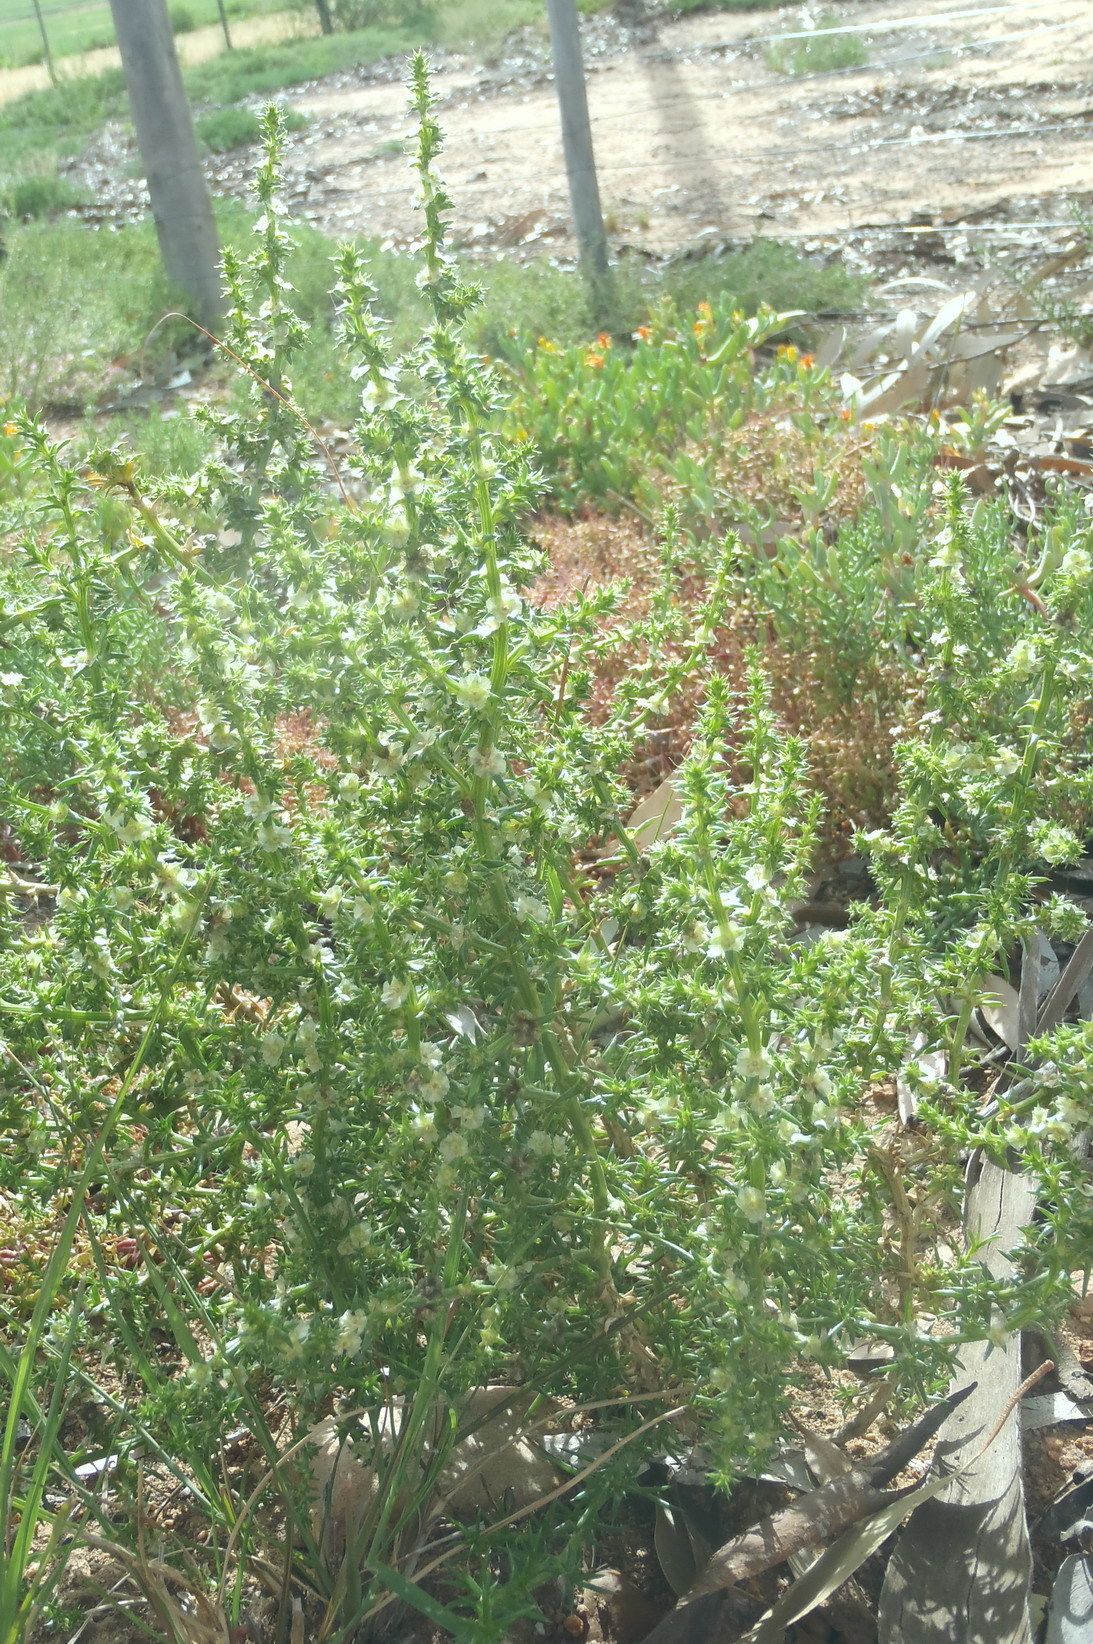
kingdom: Plantae
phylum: Tracheophyta
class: Magnoliopsida
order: Caryophyllales
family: Amaranthaceae
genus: Salsola
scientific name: Salsola kali
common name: Saltwort
